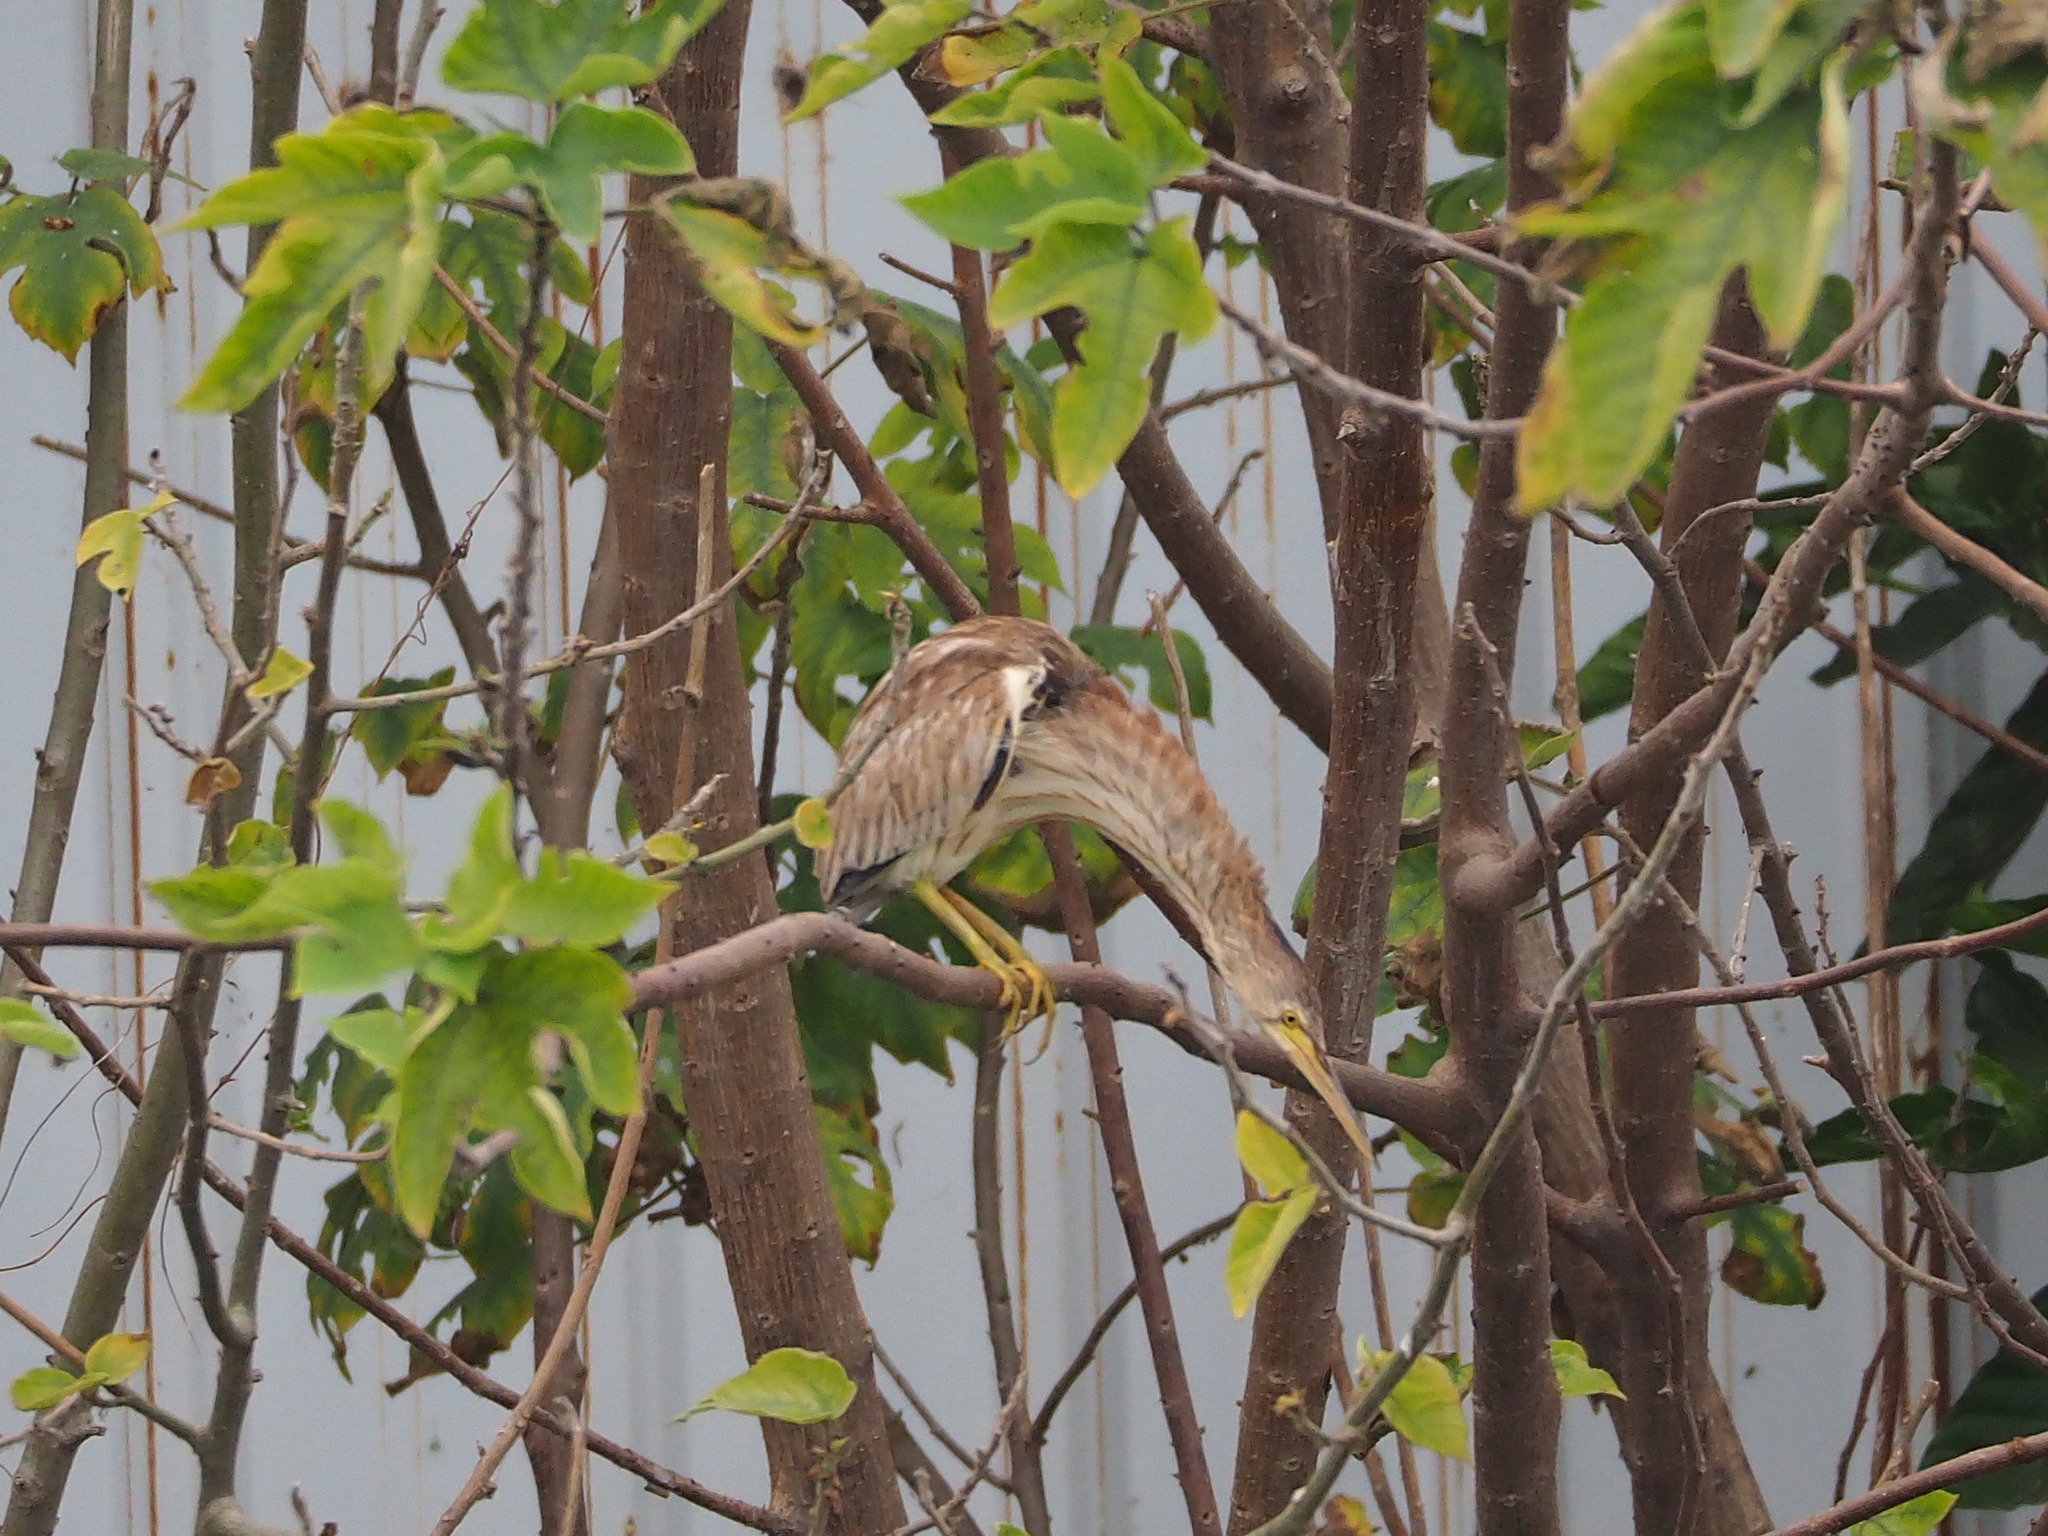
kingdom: Animalia
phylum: Chordata
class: Aves
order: Pelecaniformes
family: Ardeidae
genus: Ixobrychus
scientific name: Ixobrychus sinensis
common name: Yellow bittern
